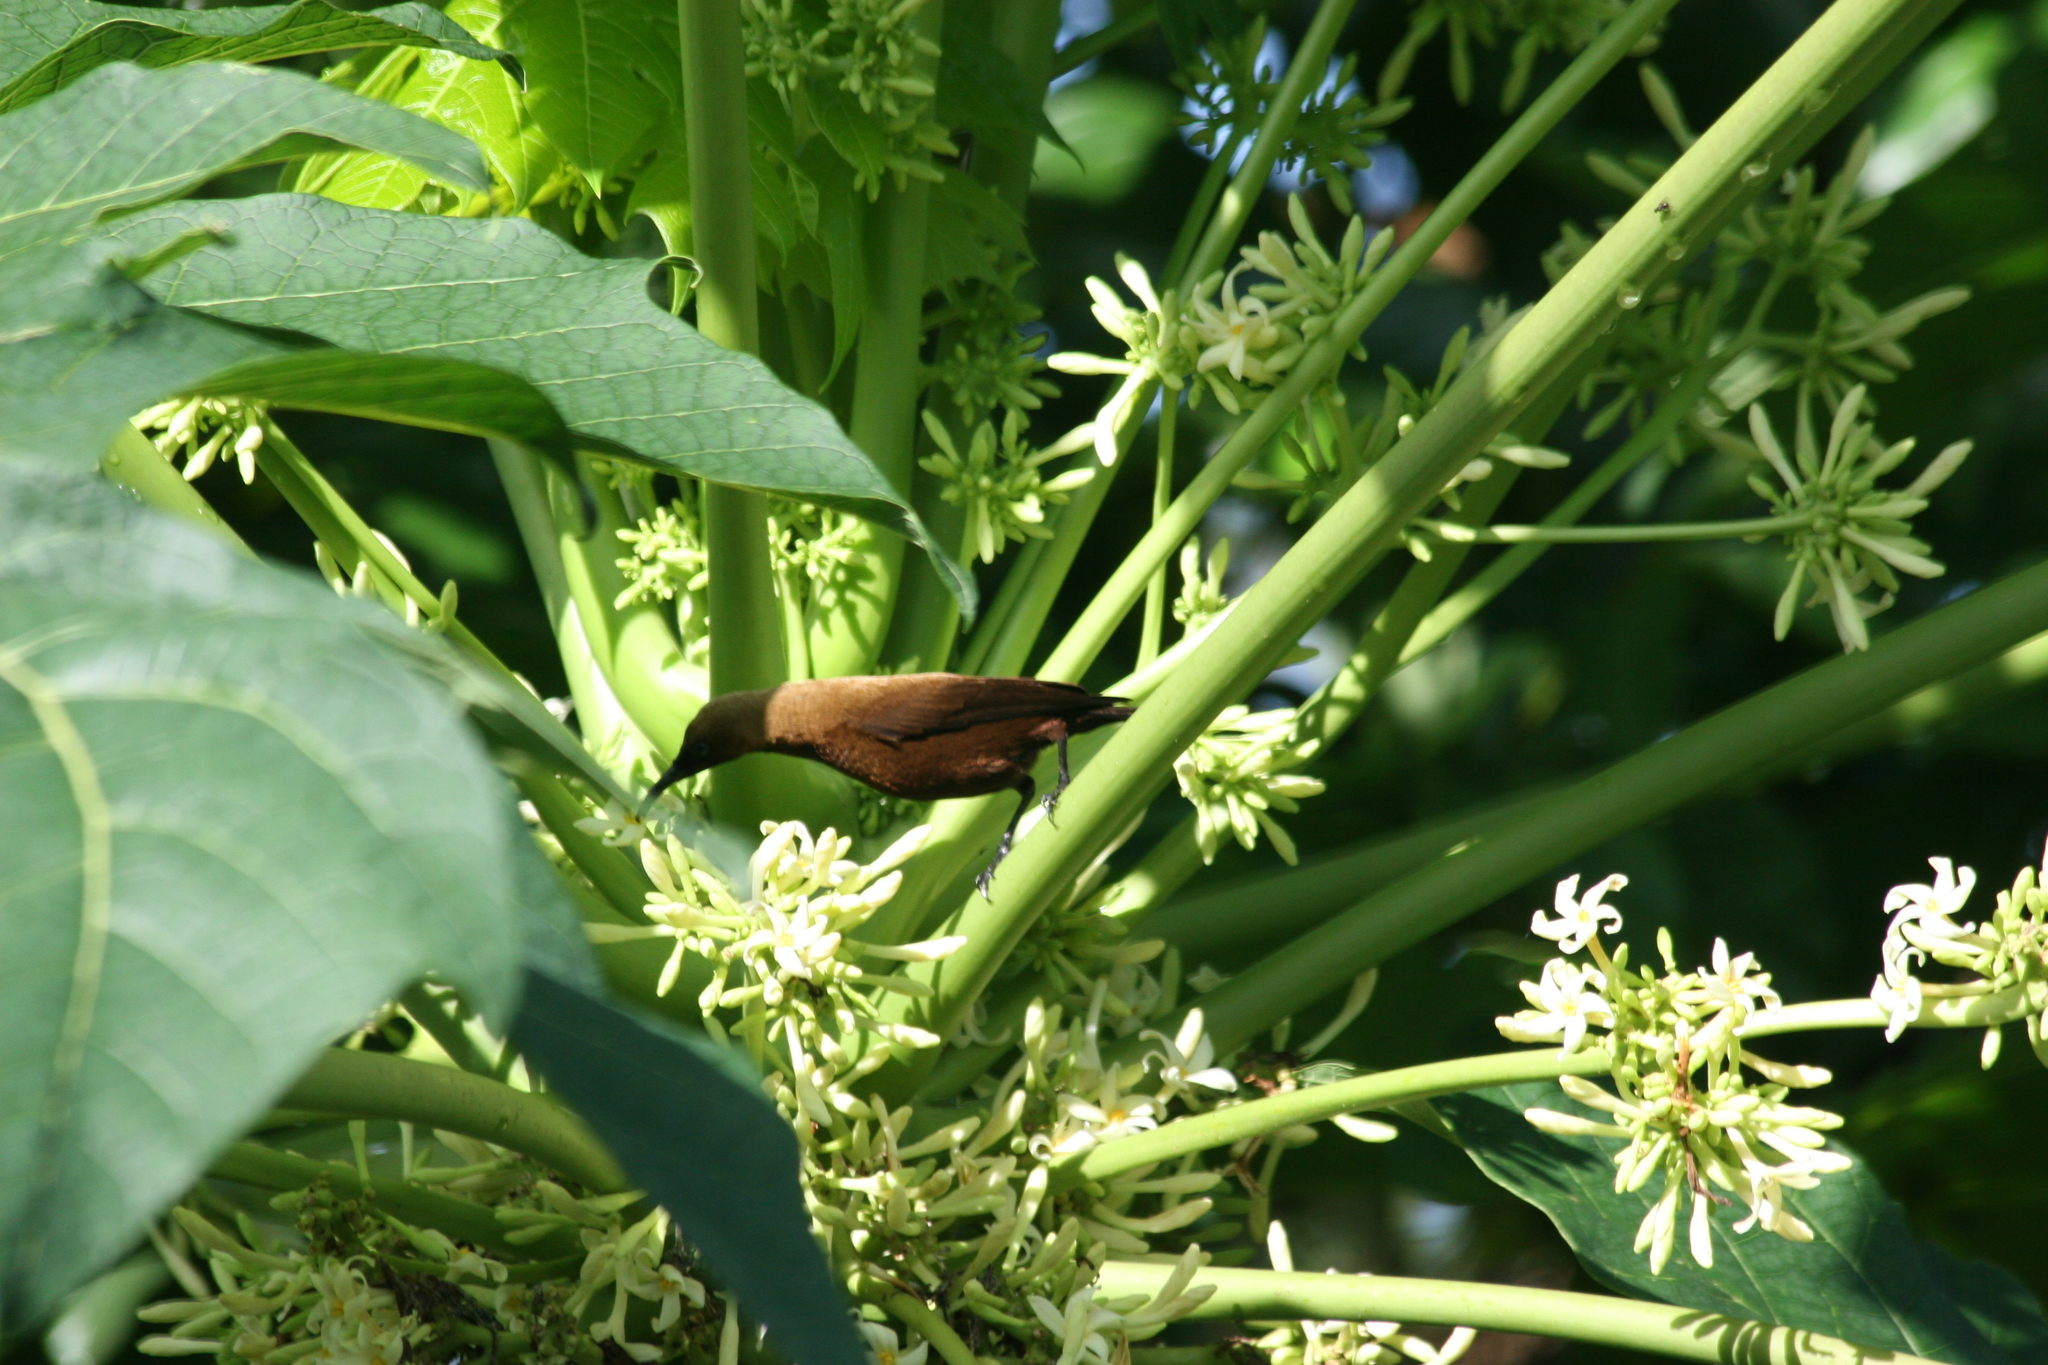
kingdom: Animalia
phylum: Chordata
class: Aves
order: Passeriformes
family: Nectariniidae
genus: Chalcomitra
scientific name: Chalcomitra fuliginosa
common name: Carmelite sunbird
